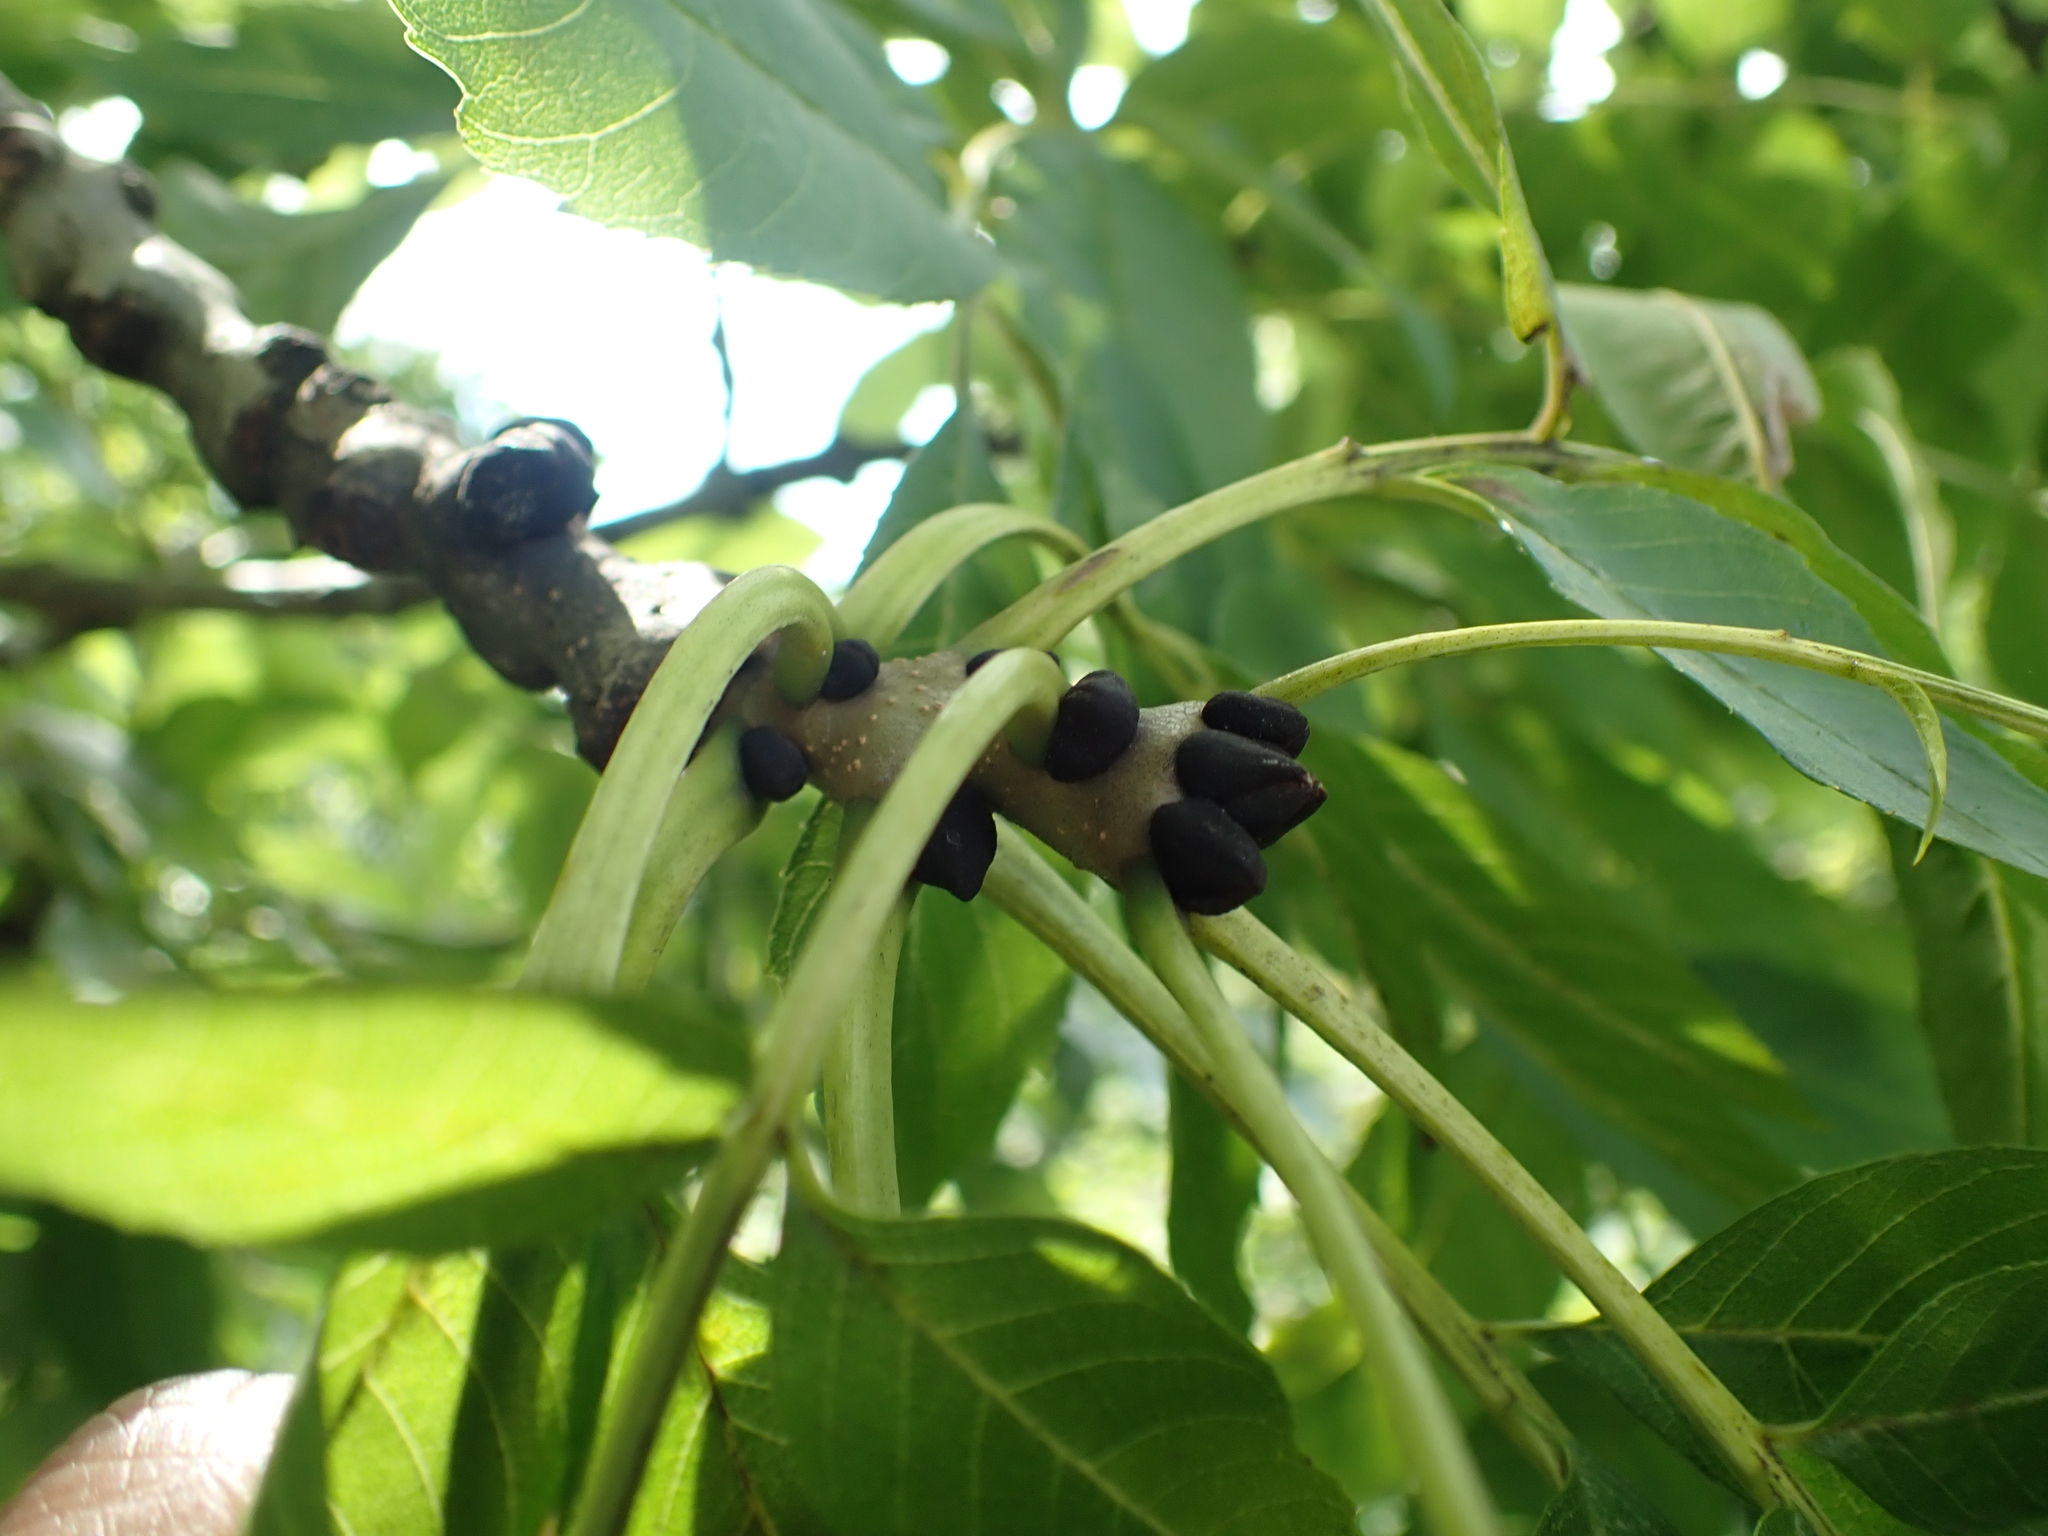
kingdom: Plantae
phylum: Tracheophyta
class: Magnoliopsida
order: Lamiales
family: Oleaceae
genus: Fraxinus
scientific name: Fraxinus excelsior
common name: European ash
